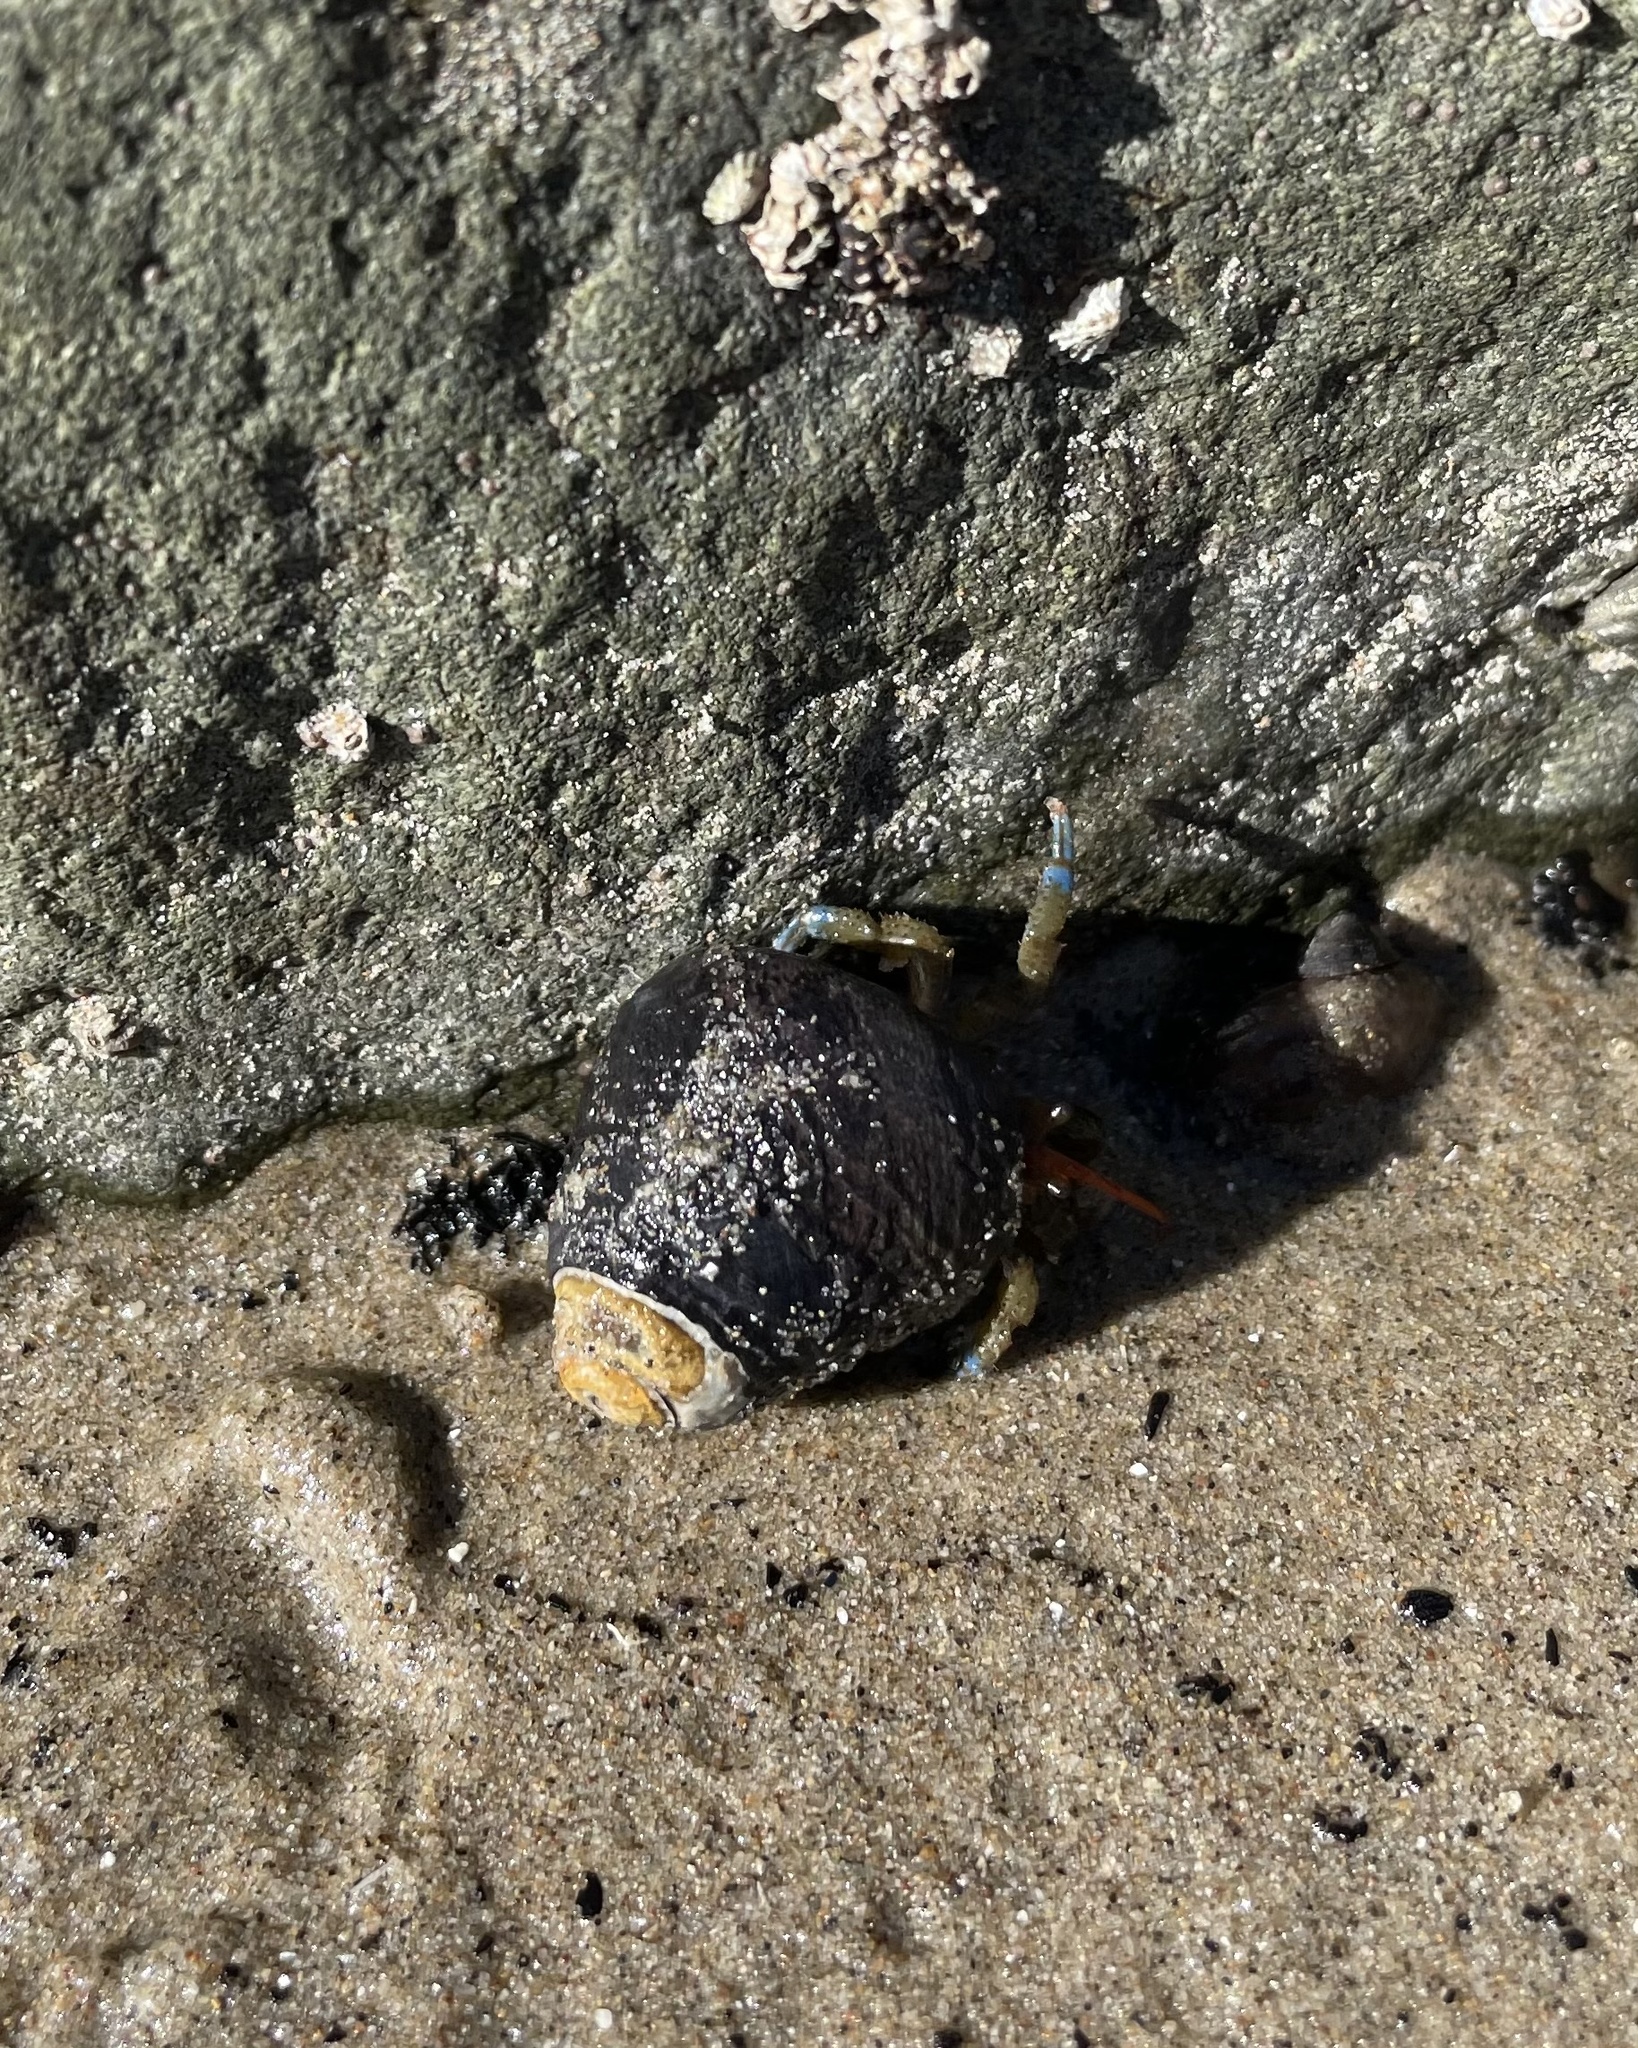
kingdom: Animalia
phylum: Arthropoda
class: Malacostraca
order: Decapoda
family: Paguridae
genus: Pagurus
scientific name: Pagurus samuelis
